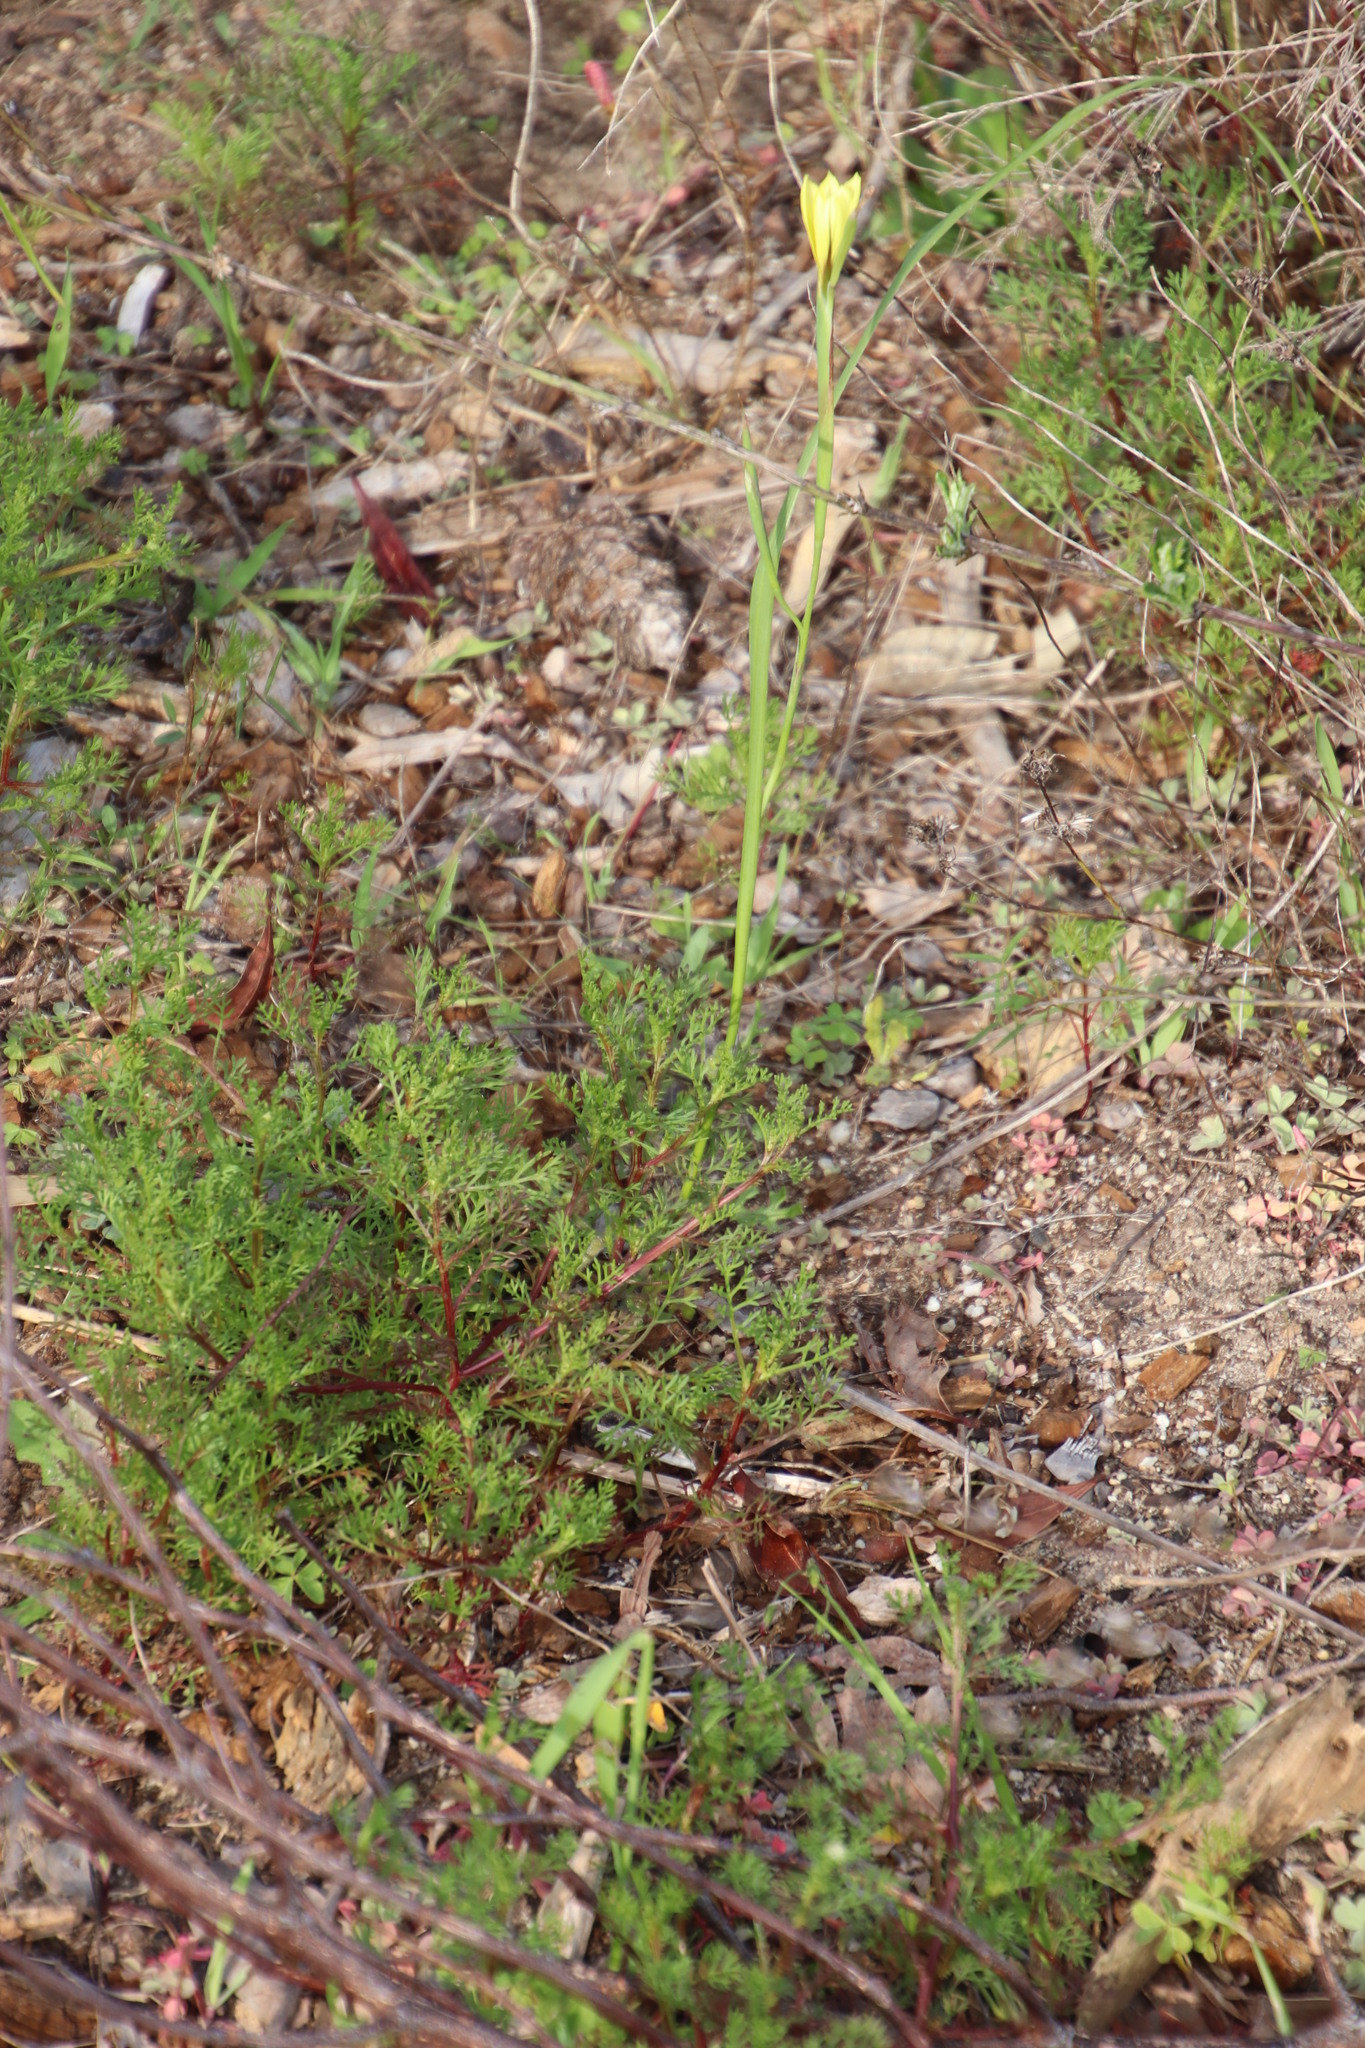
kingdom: Plantae
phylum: Tracheophyta
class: Liliopsida
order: Asparagales
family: Iridaceae
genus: Moraea
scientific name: Moraea collina
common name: Cape-tulip
